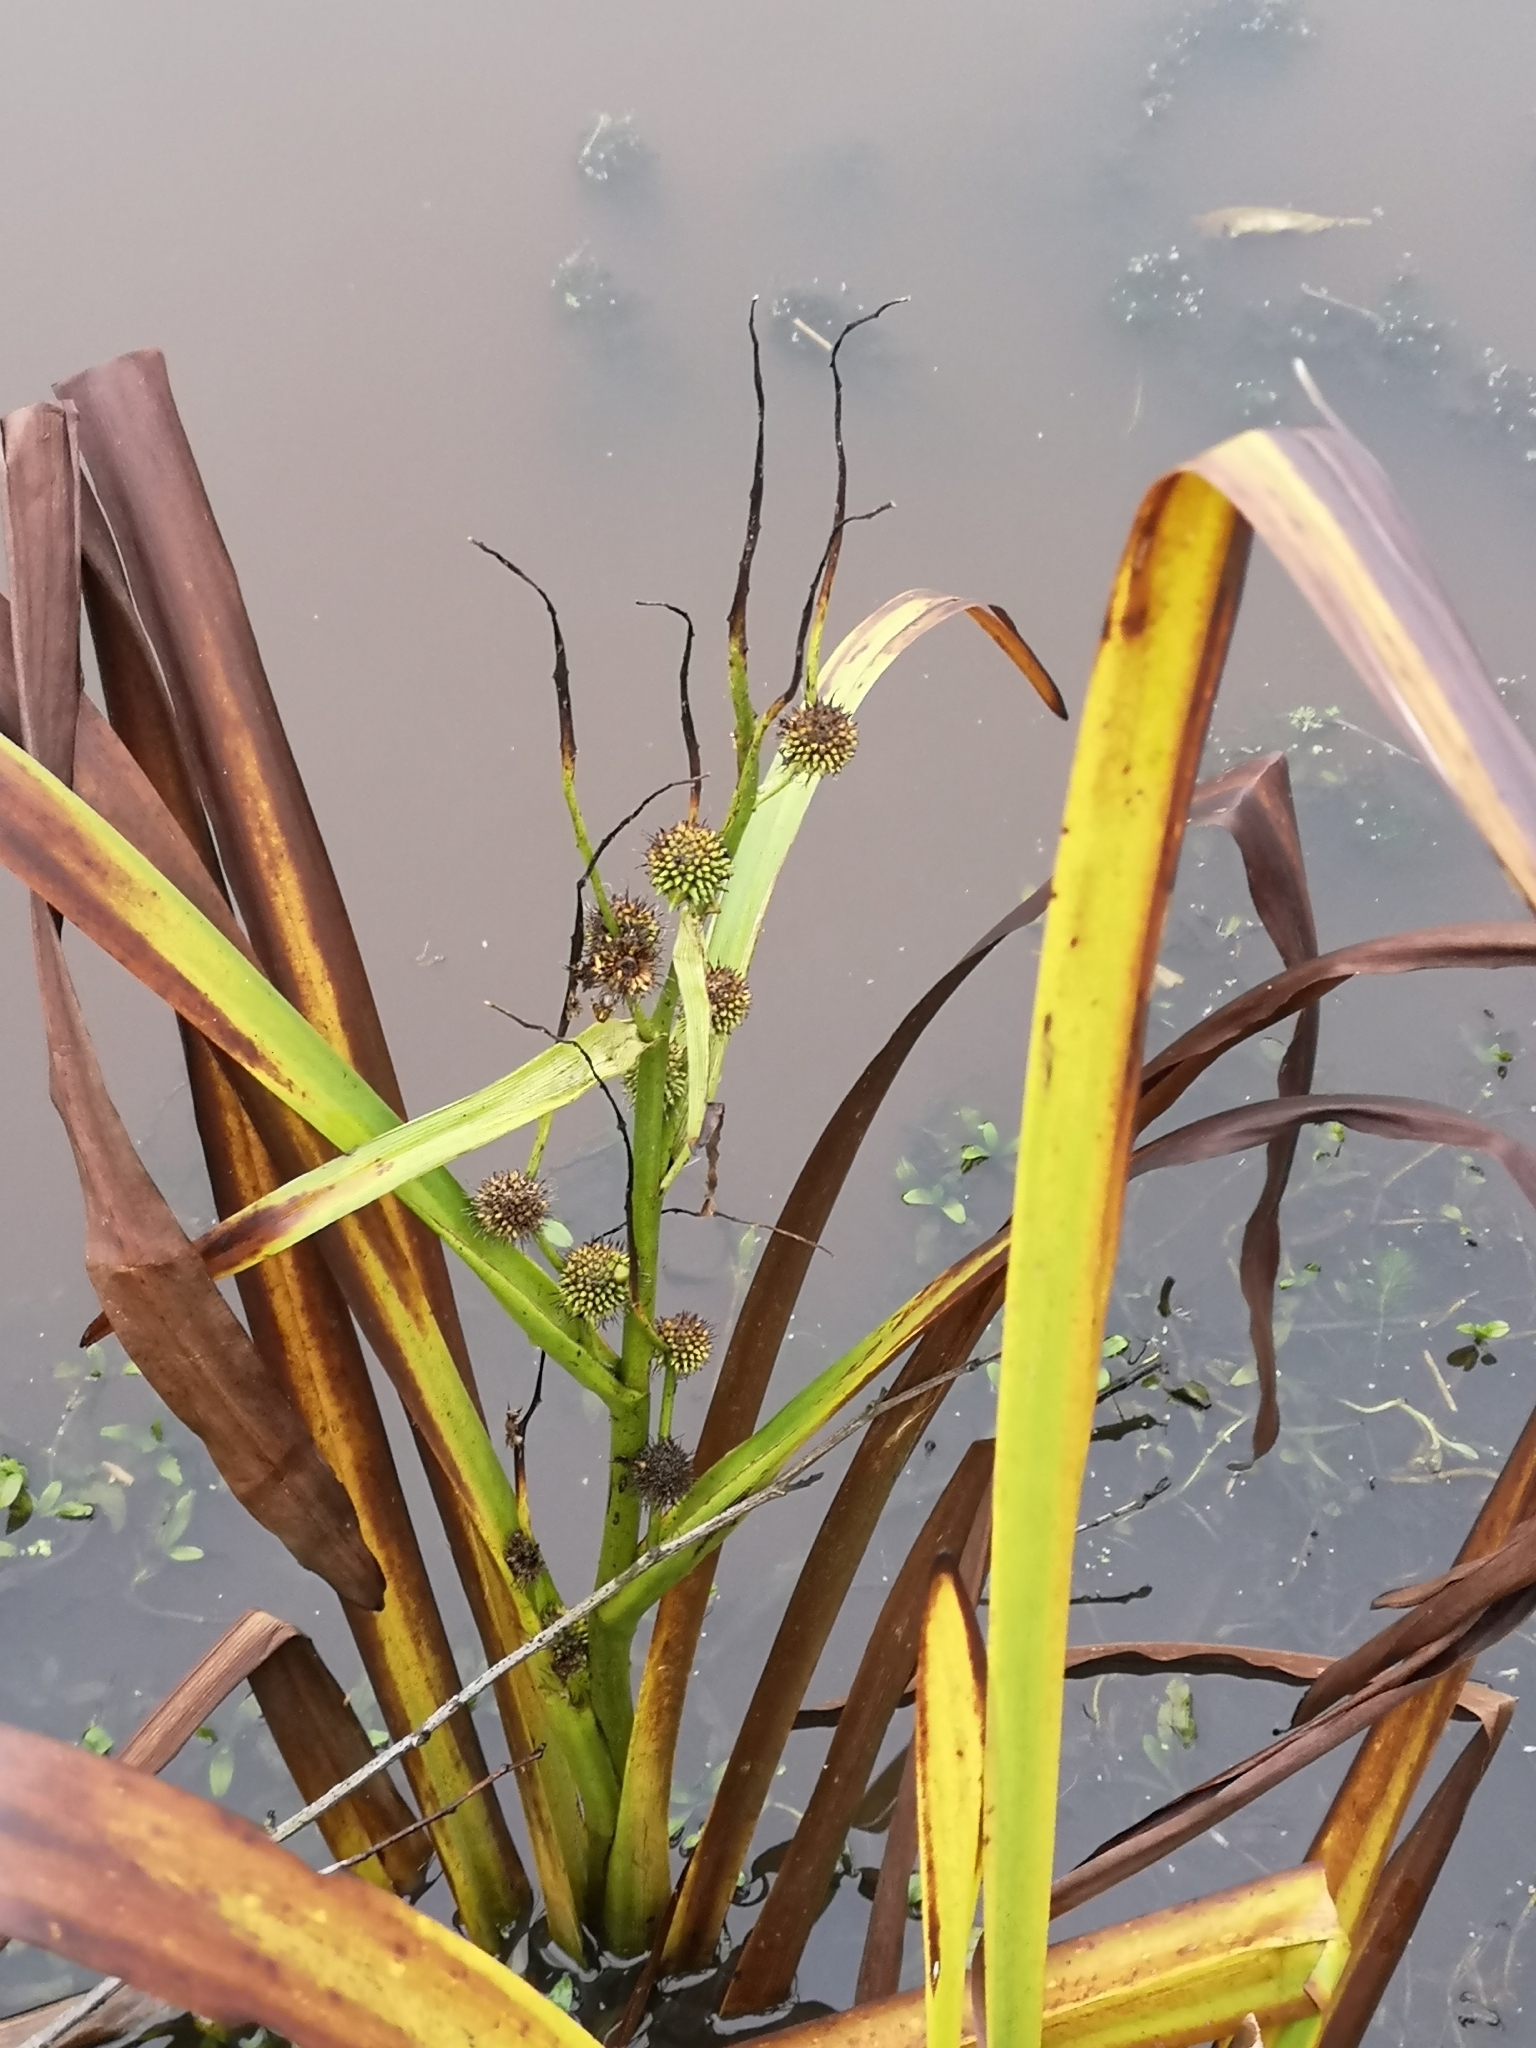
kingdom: Plantae
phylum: Tracheophyta
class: Liliopsida
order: Poales
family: Typhaceae
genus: Sparganium
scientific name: Sparganium erectum
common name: Branched bur-reed
